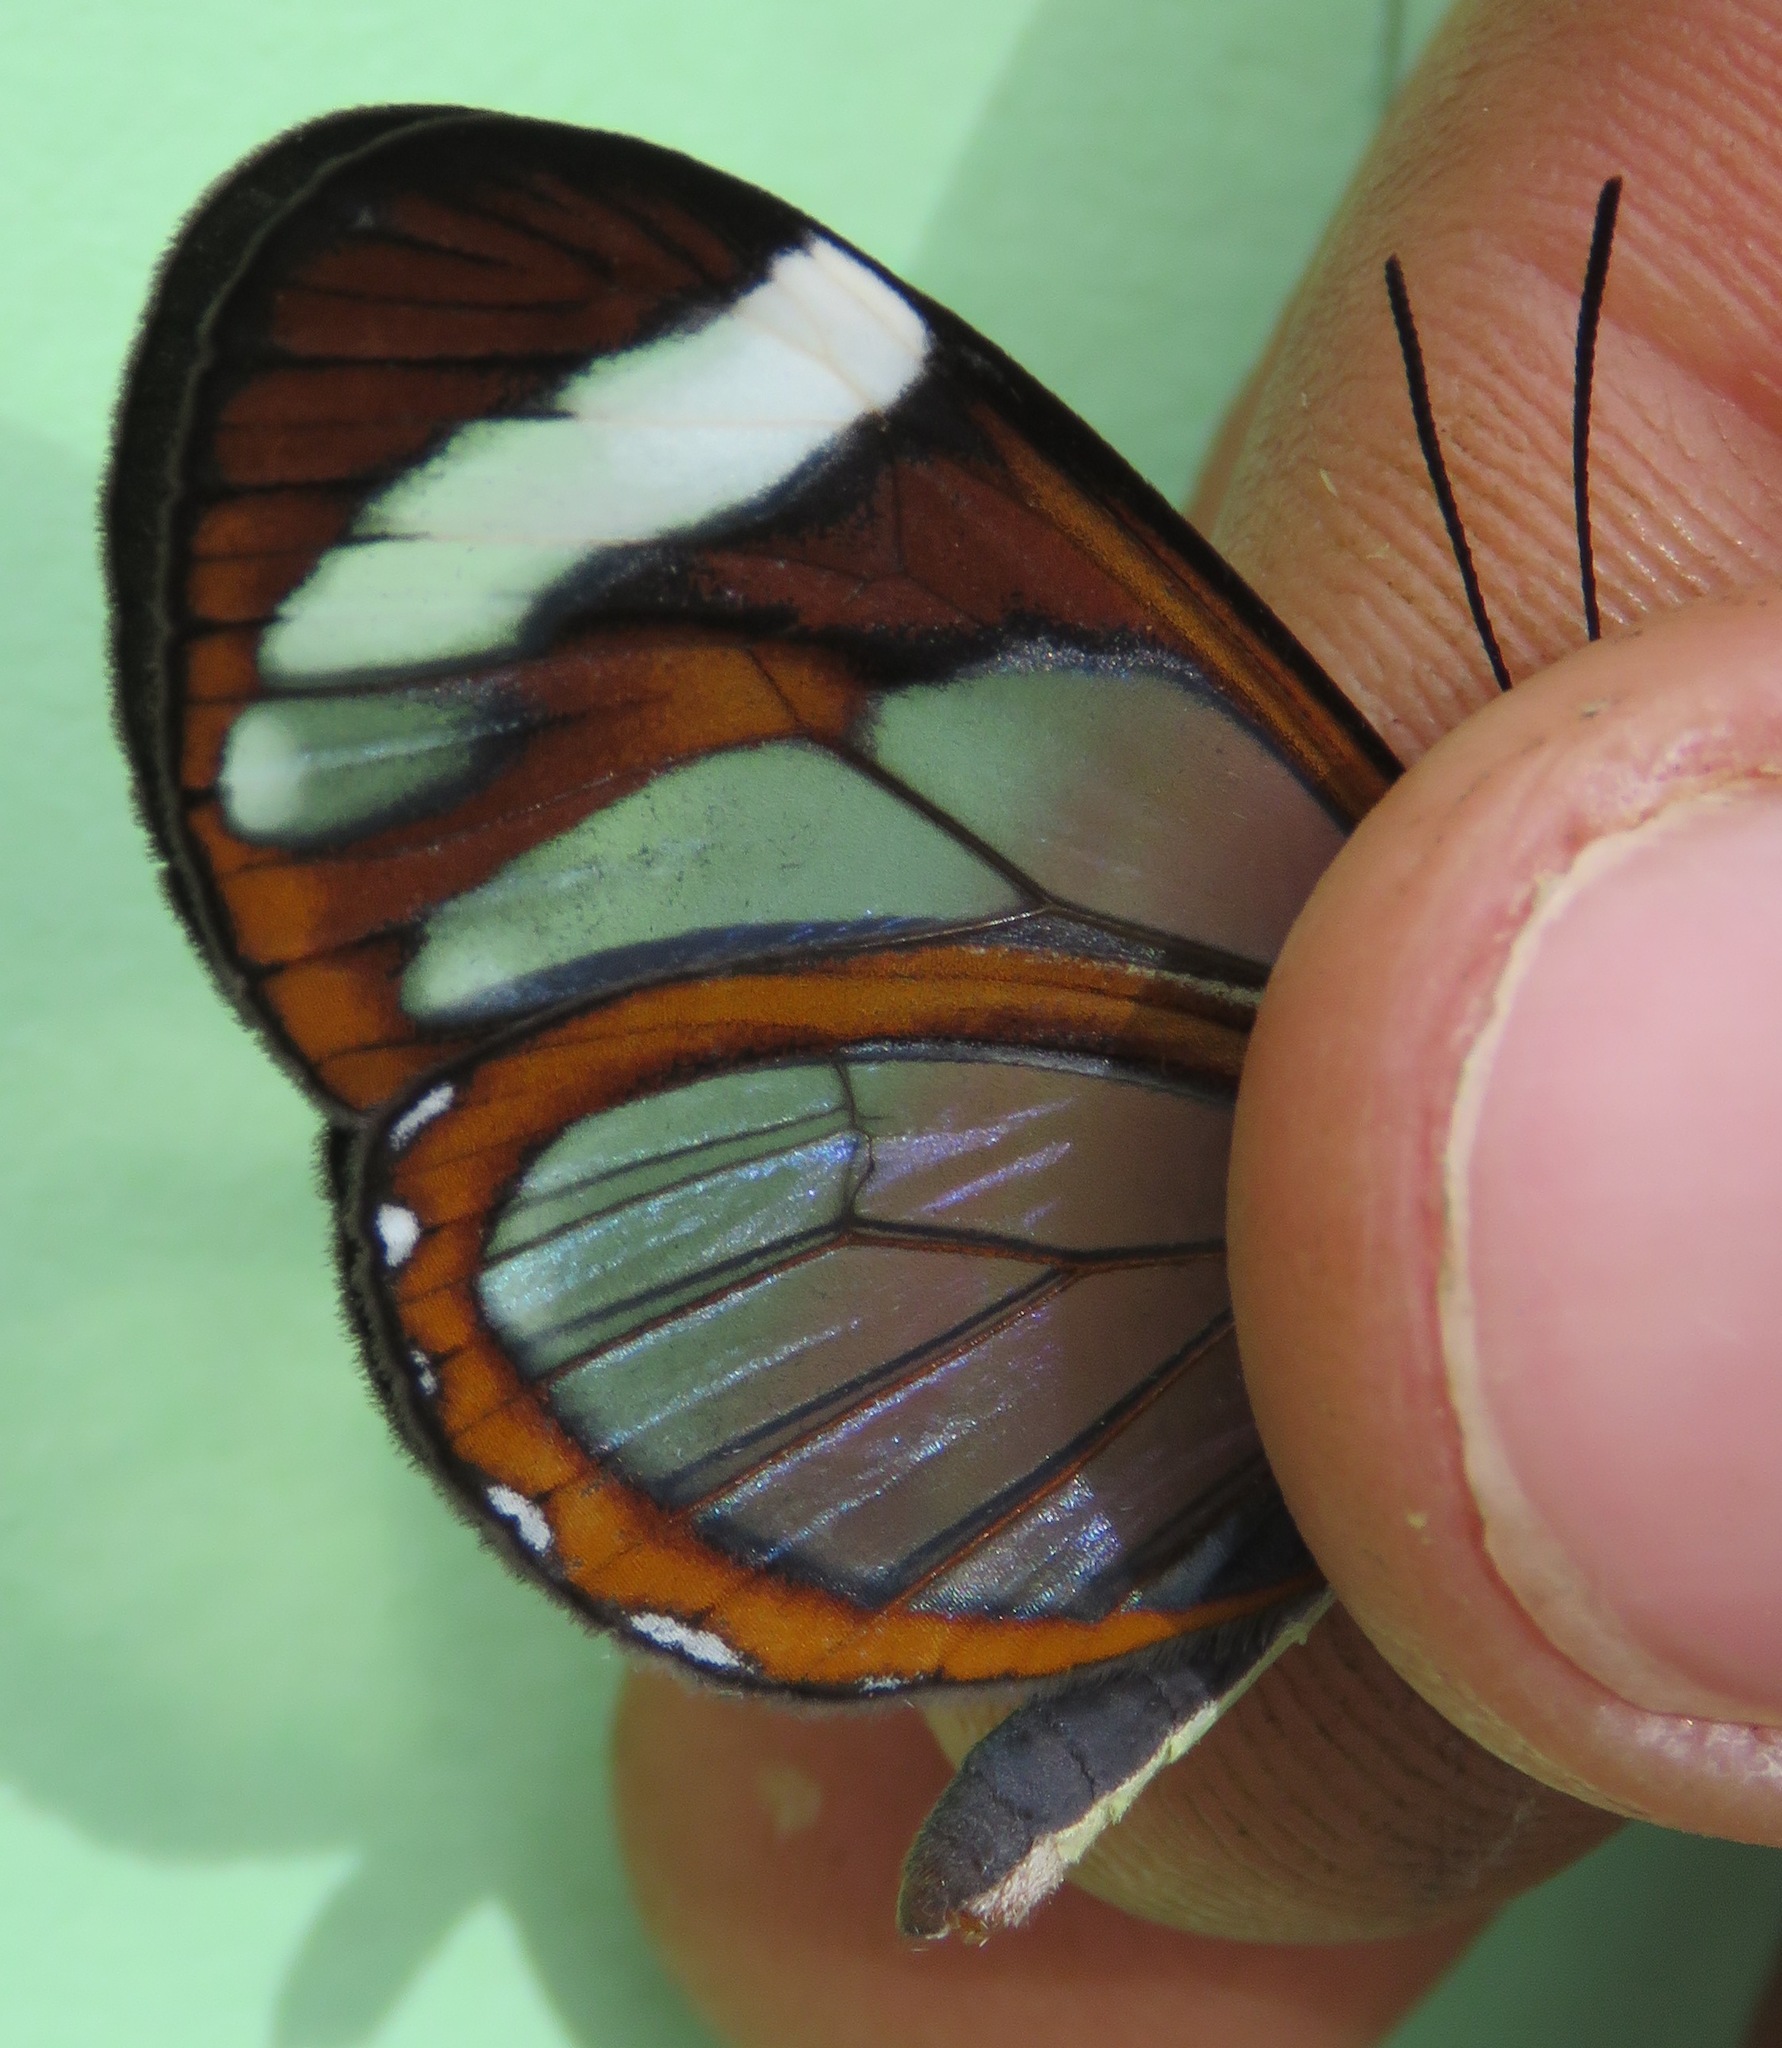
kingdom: Animalia
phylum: Arthropoda
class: Insecta
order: Lepidoptera
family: Nymphalidae
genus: Ithomia
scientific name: Ithomia patilla
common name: Patilla clearwing
